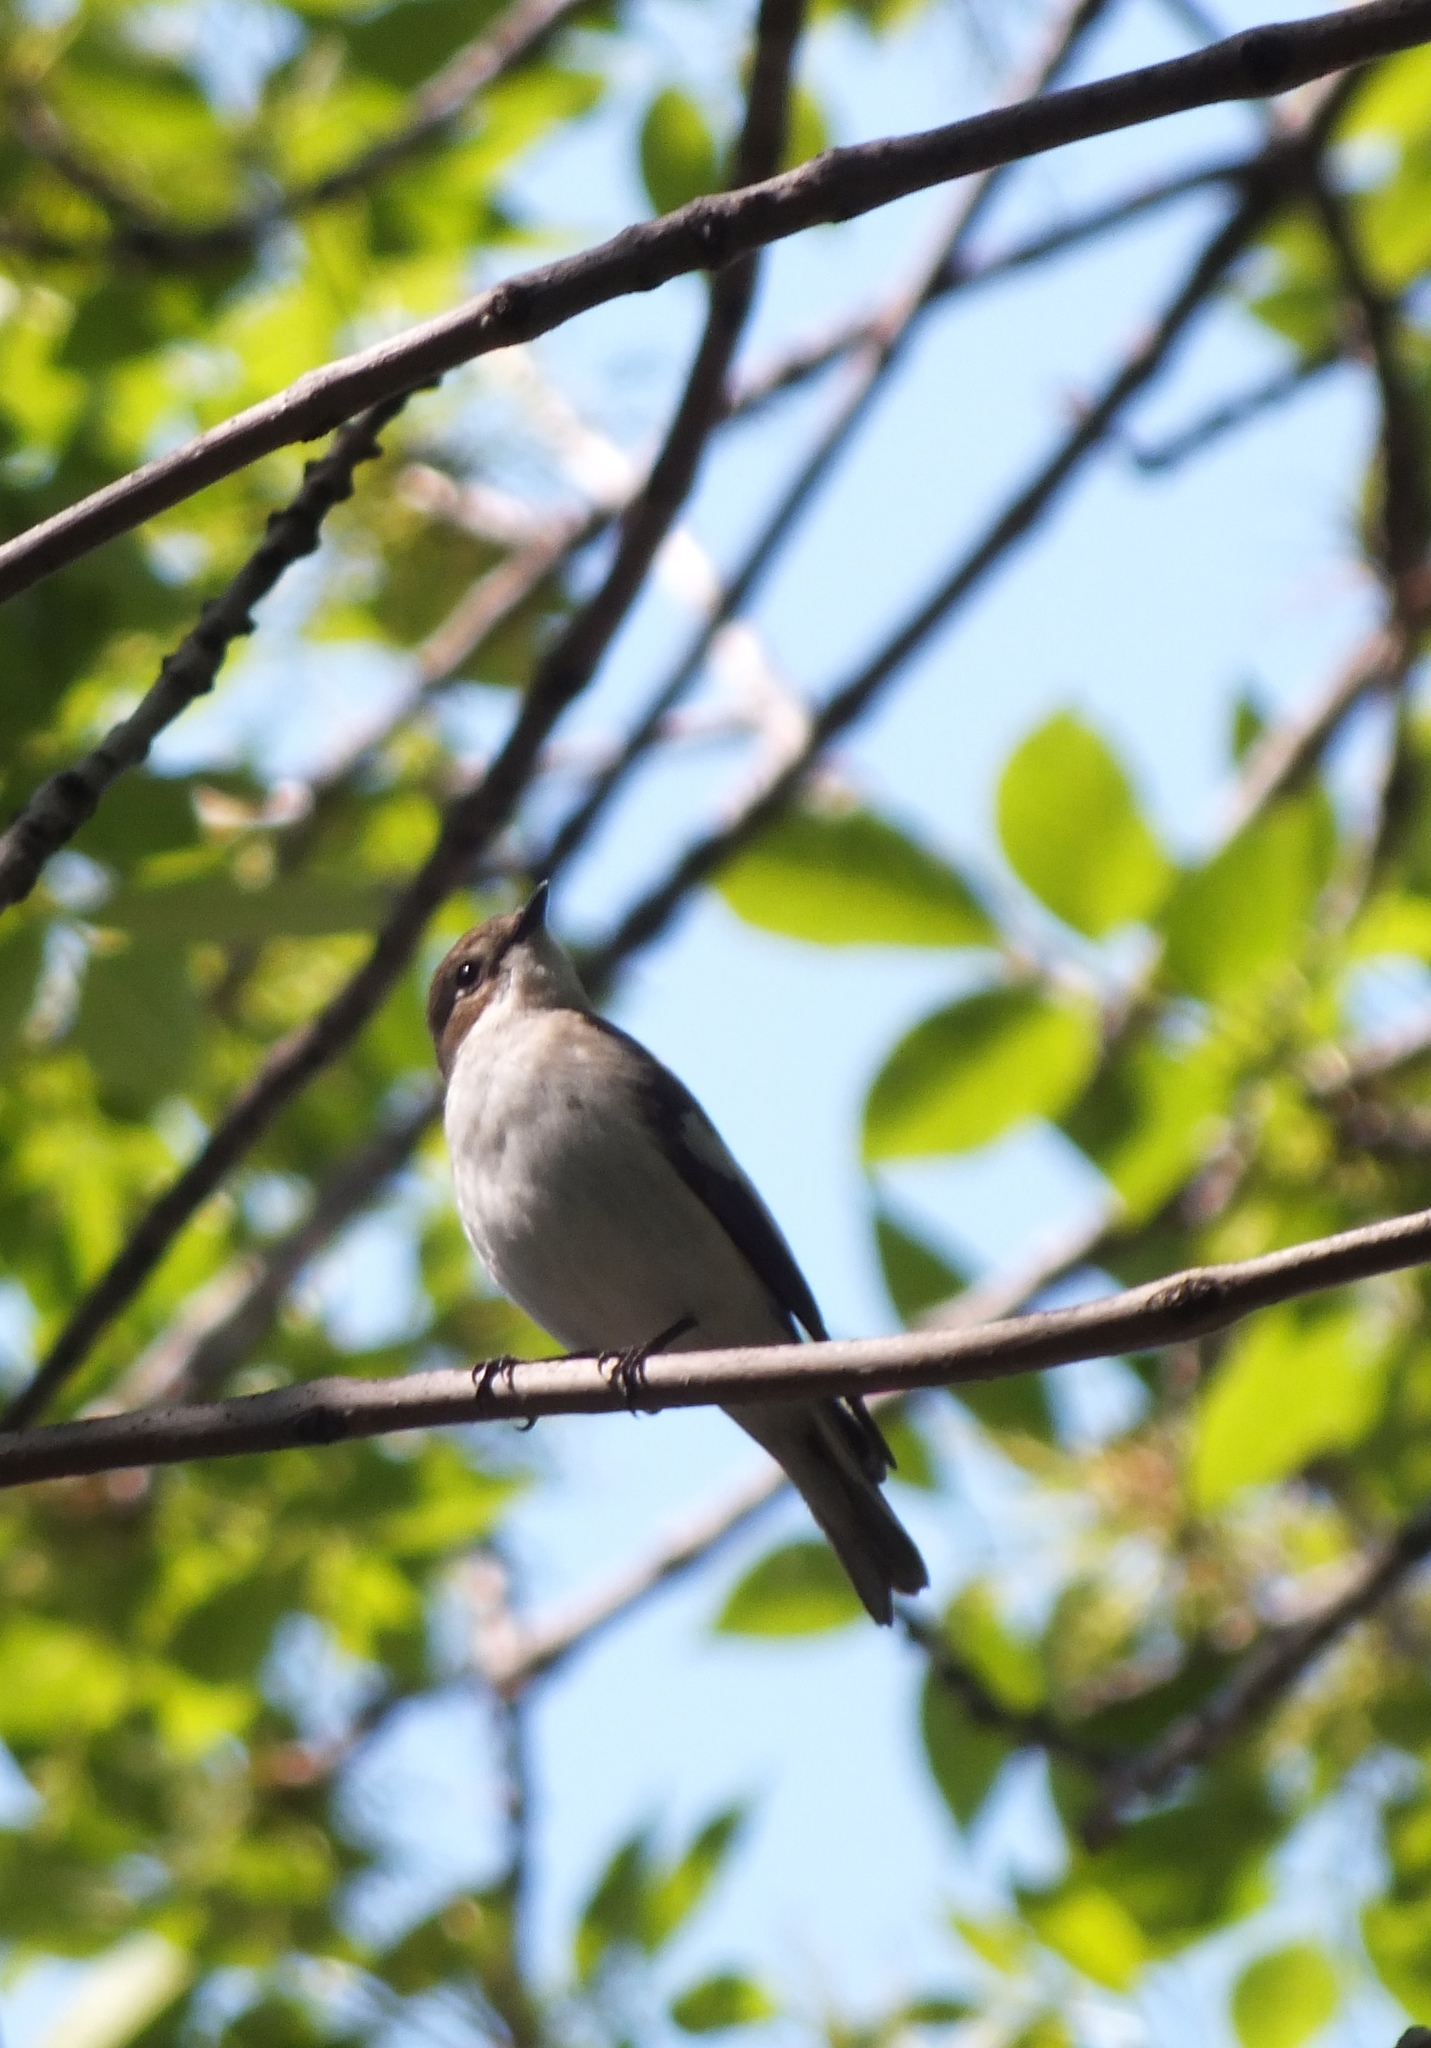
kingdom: Animalia
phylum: Chordata
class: Aves
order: Passeriformes
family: Muscicapidae
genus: Ficedula
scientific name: Ficedula hypoleuca
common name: European pied flycatcher
